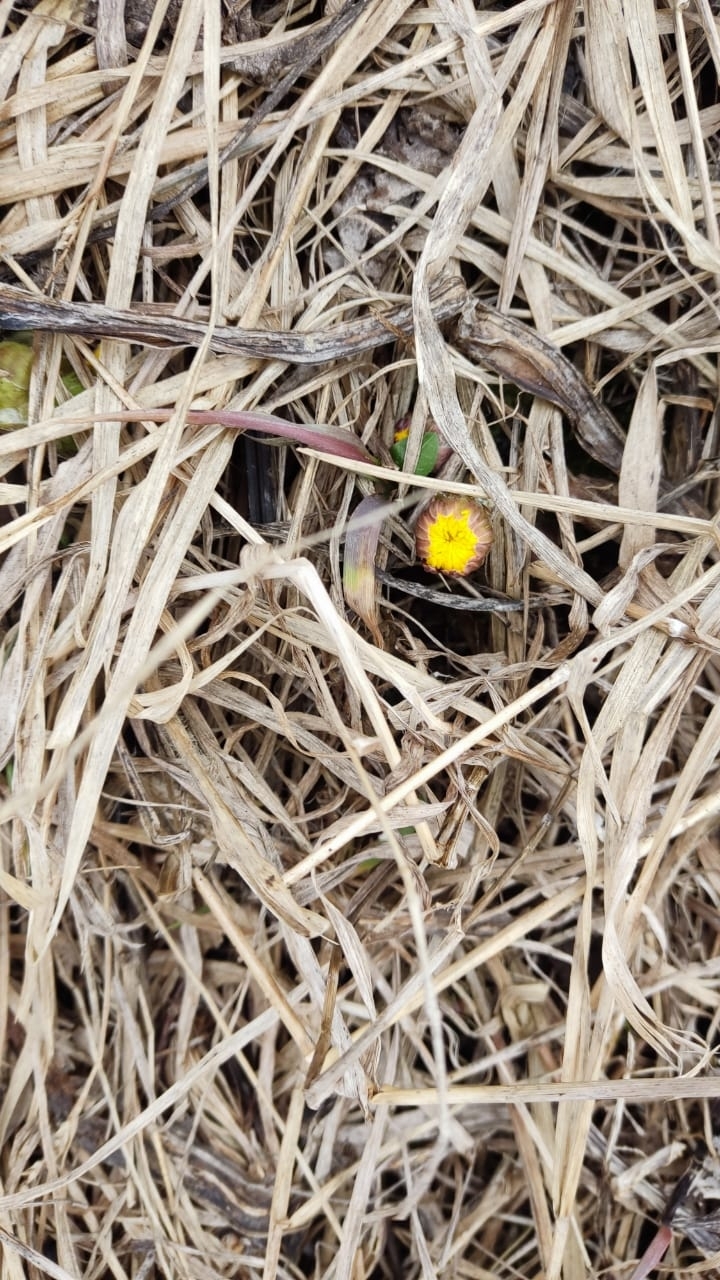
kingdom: Plantae
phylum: Tracheophyta
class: Magnoliopsida
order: Asterales
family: Asteraceae
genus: Tussilago
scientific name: Tussilago farfara
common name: Coltsfoot
